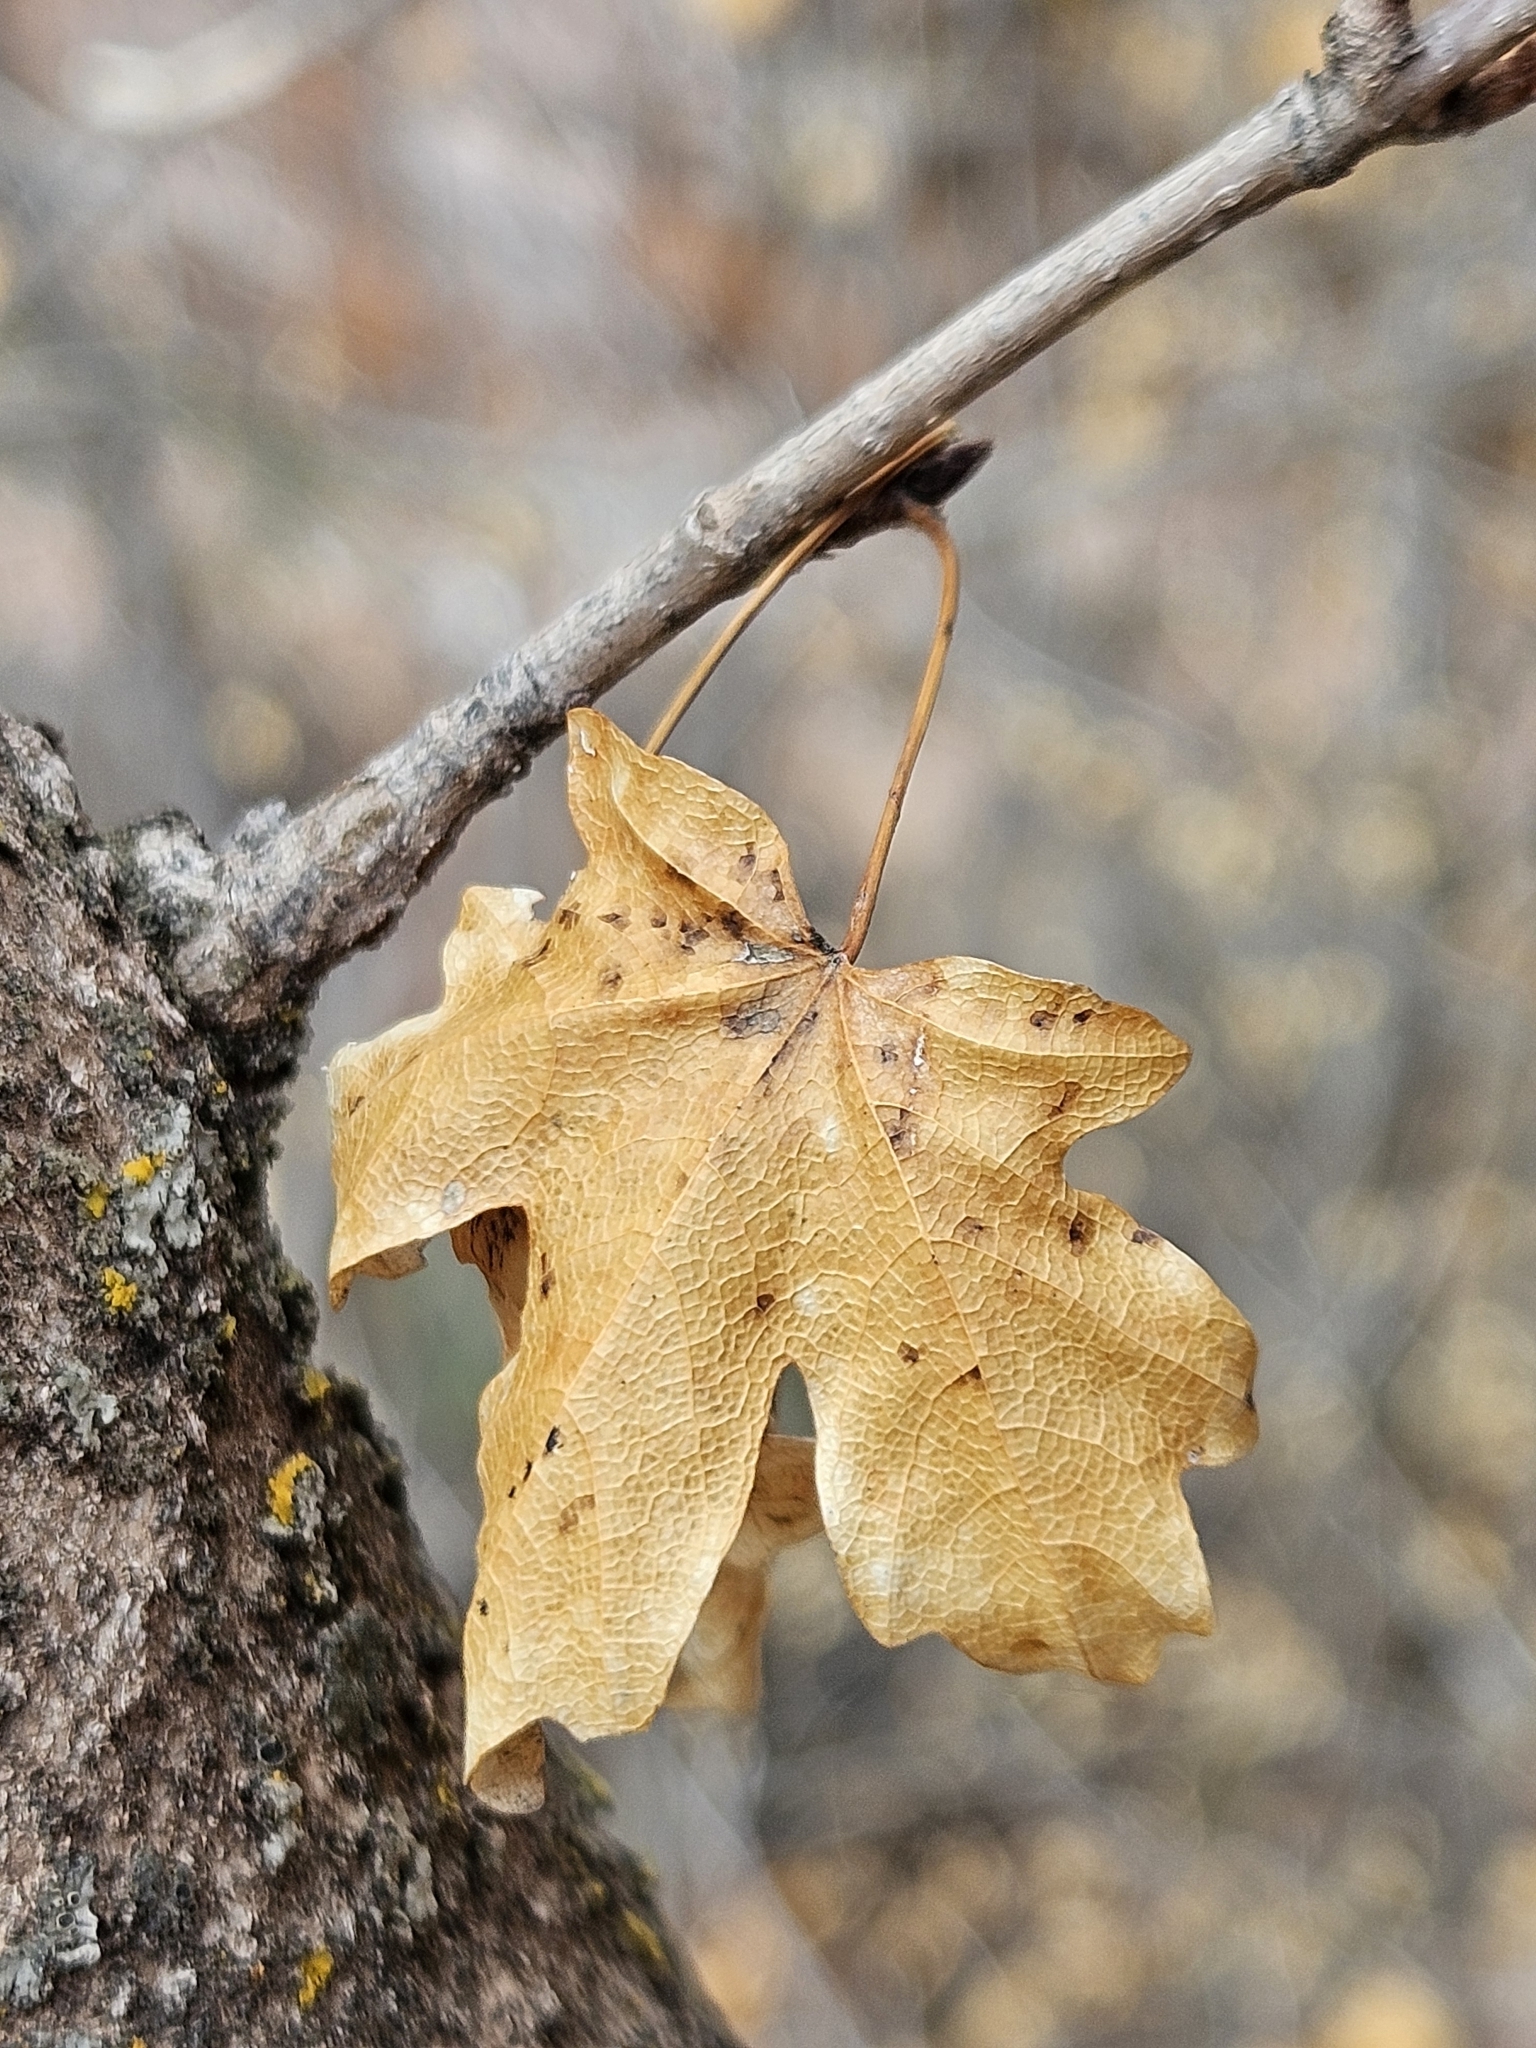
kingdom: Plantae
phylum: Tracheophyta
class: Magnoliopsida
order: Sapindales
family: Sapindaceae
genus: Acer
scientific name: Acer grandidentatum
